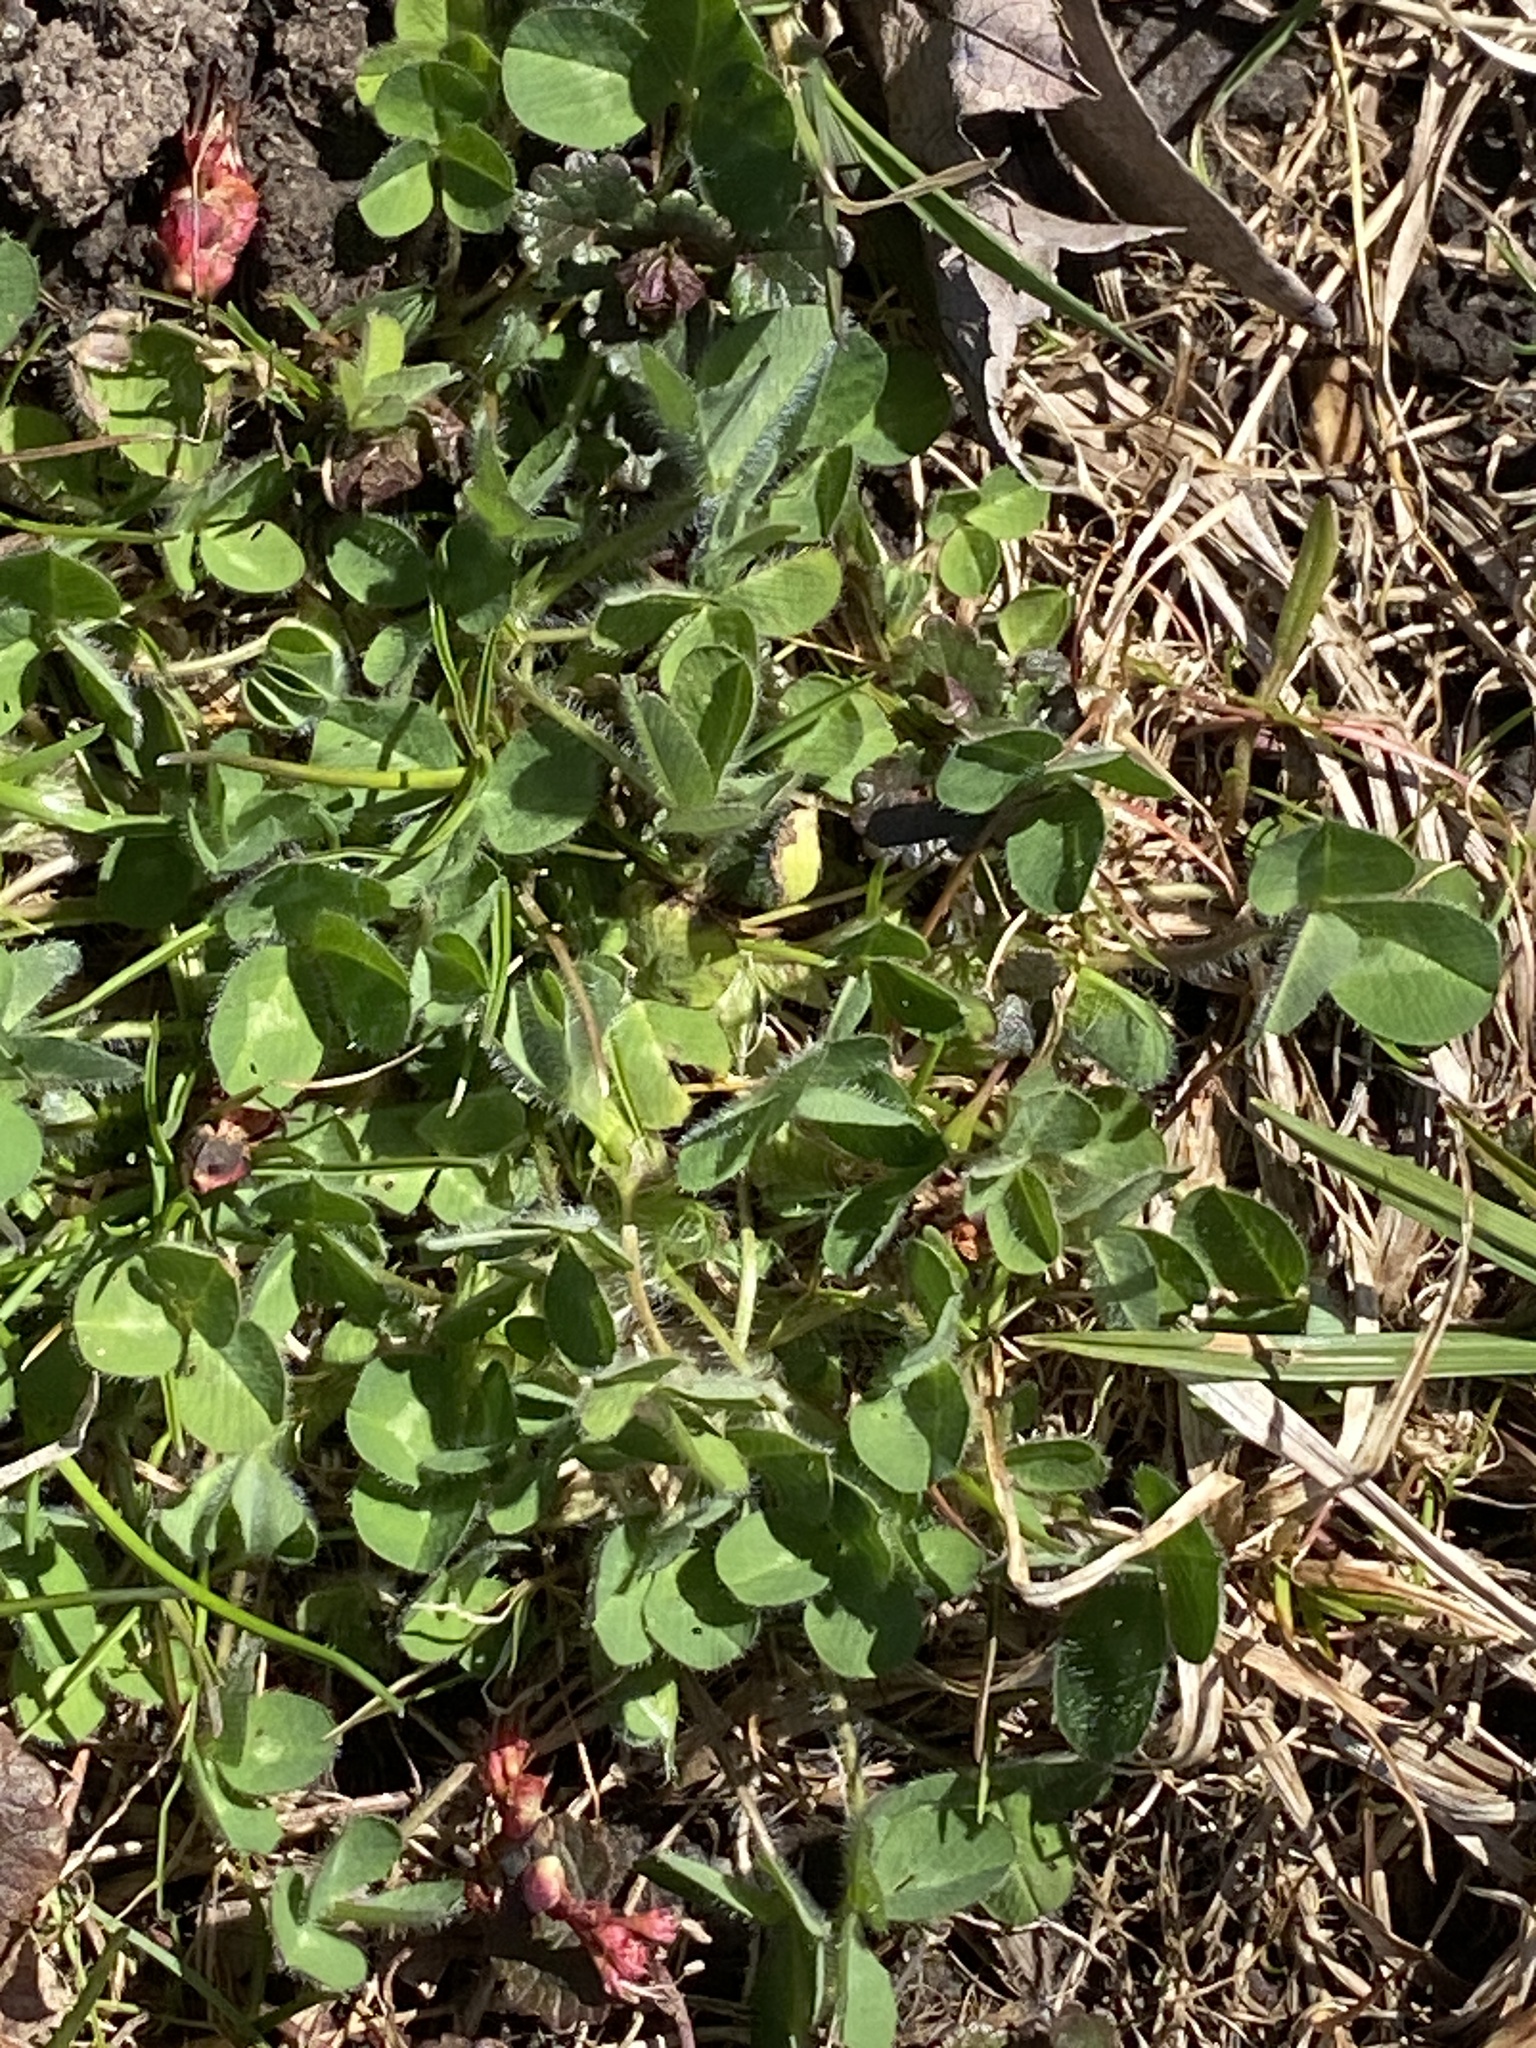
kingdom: Plantae
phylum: Tracheophyta
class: Magnoliopsida
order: Fabales
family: Fabaceae
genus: Trifolium
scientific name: Trifolium pratense
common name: Red clover
